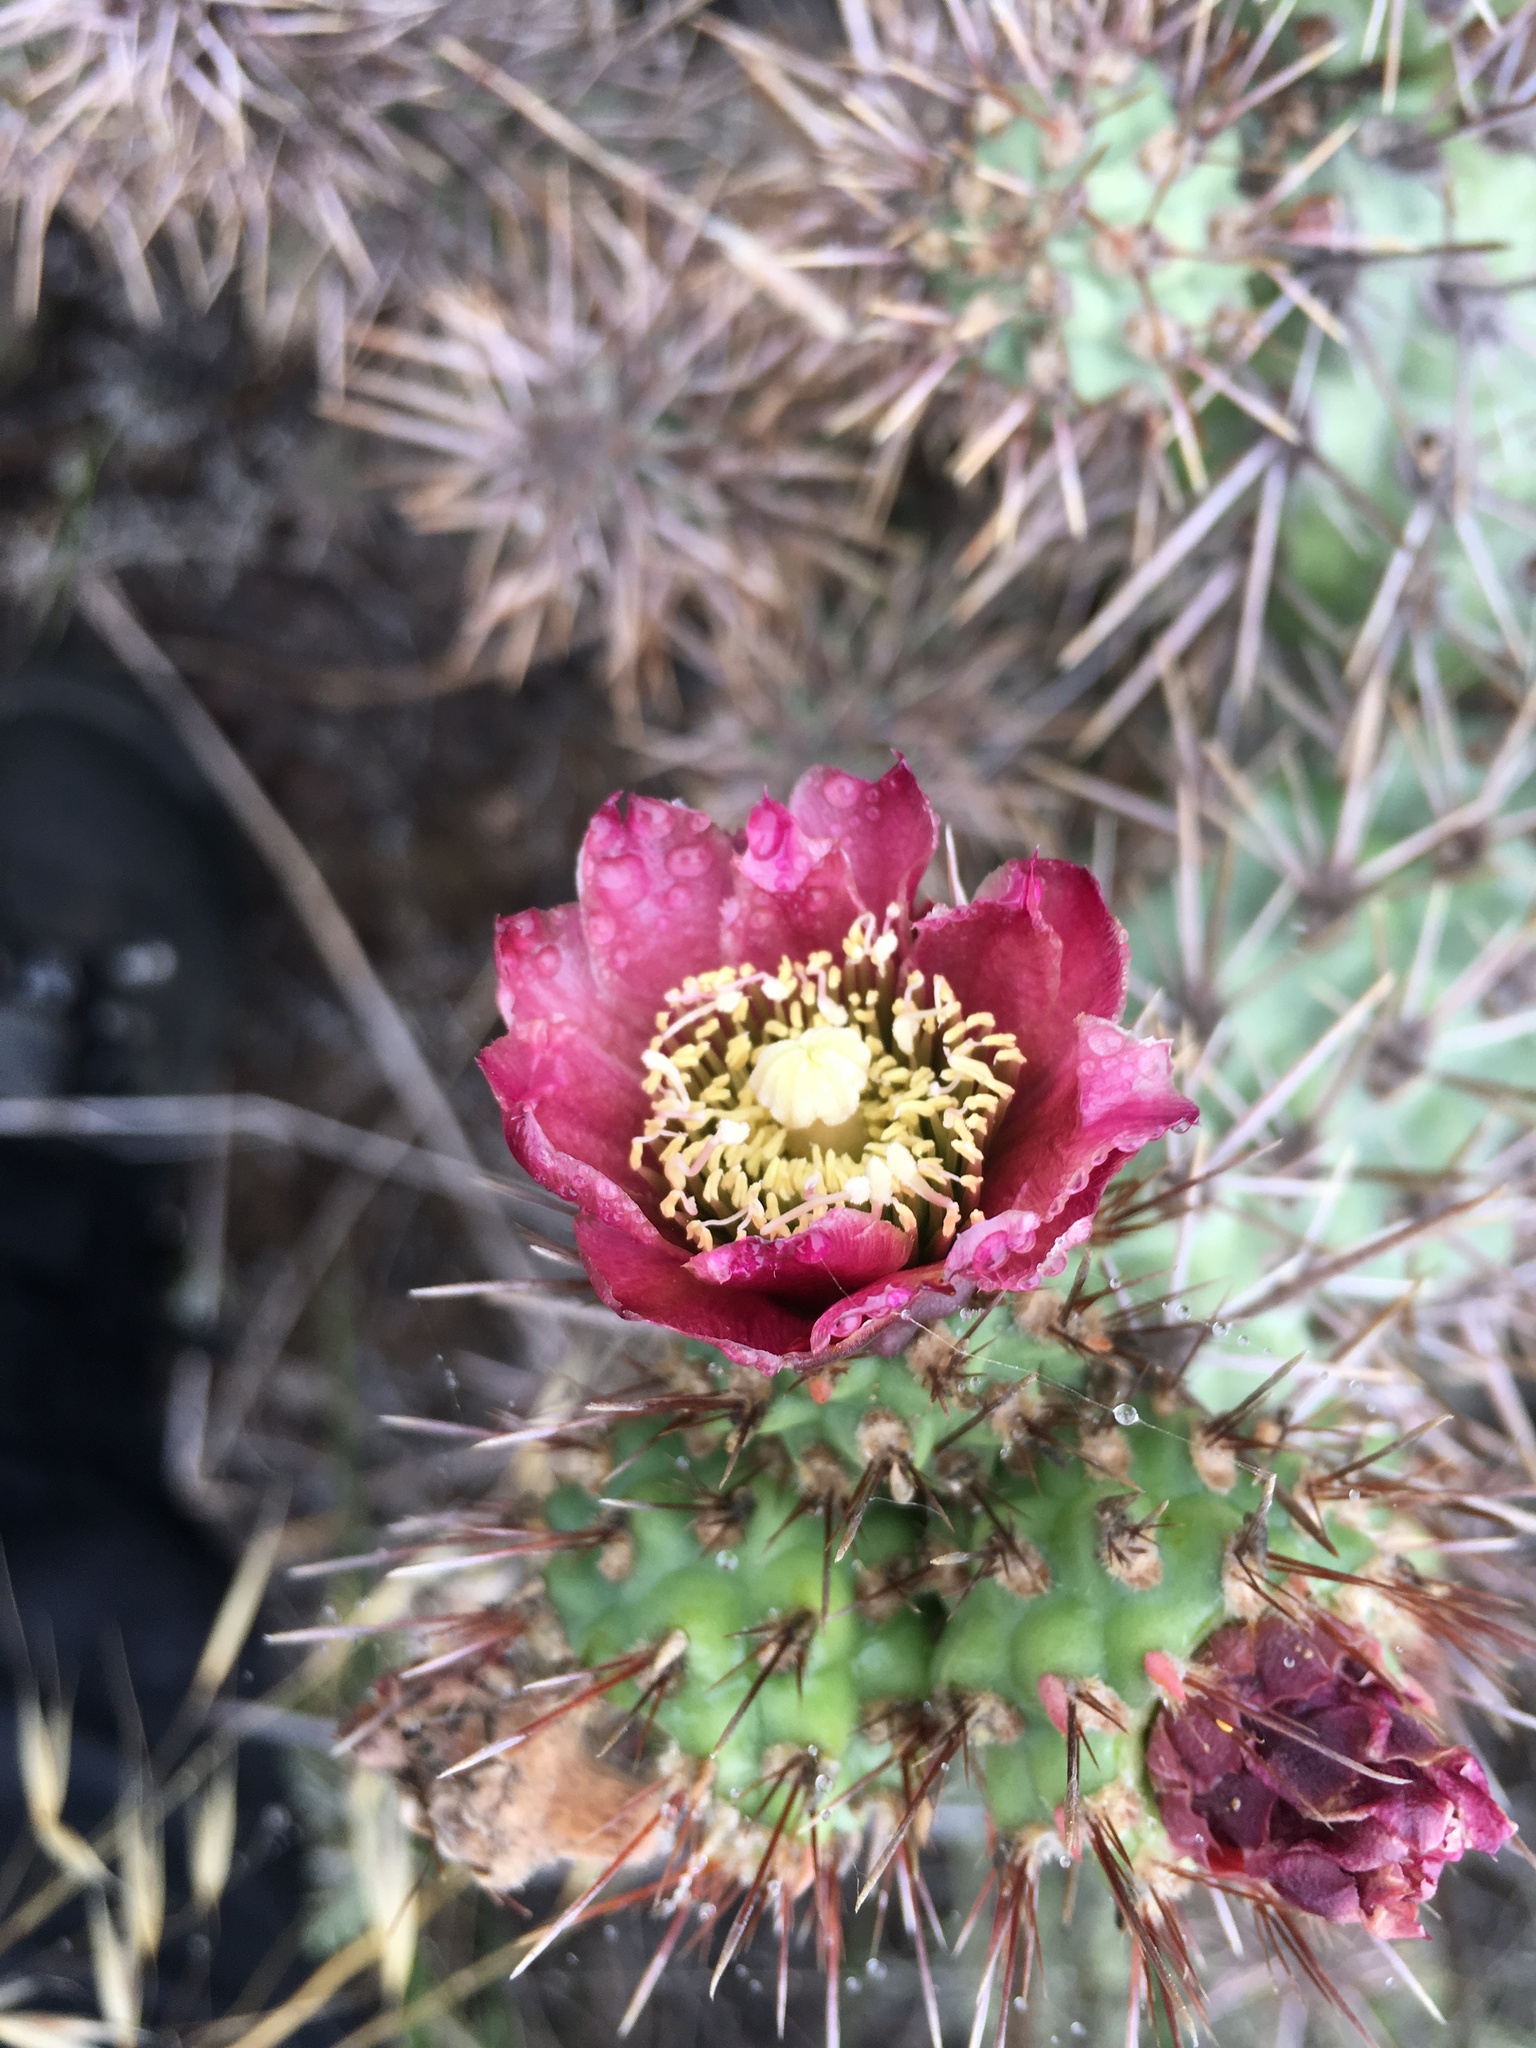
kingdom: Plantae
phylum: Tracheophyta
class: Magnoliopsida
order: Caryophyllales
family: Cactaceae
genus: Cylindropuntia
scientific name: Cylindropuntia prolifera
